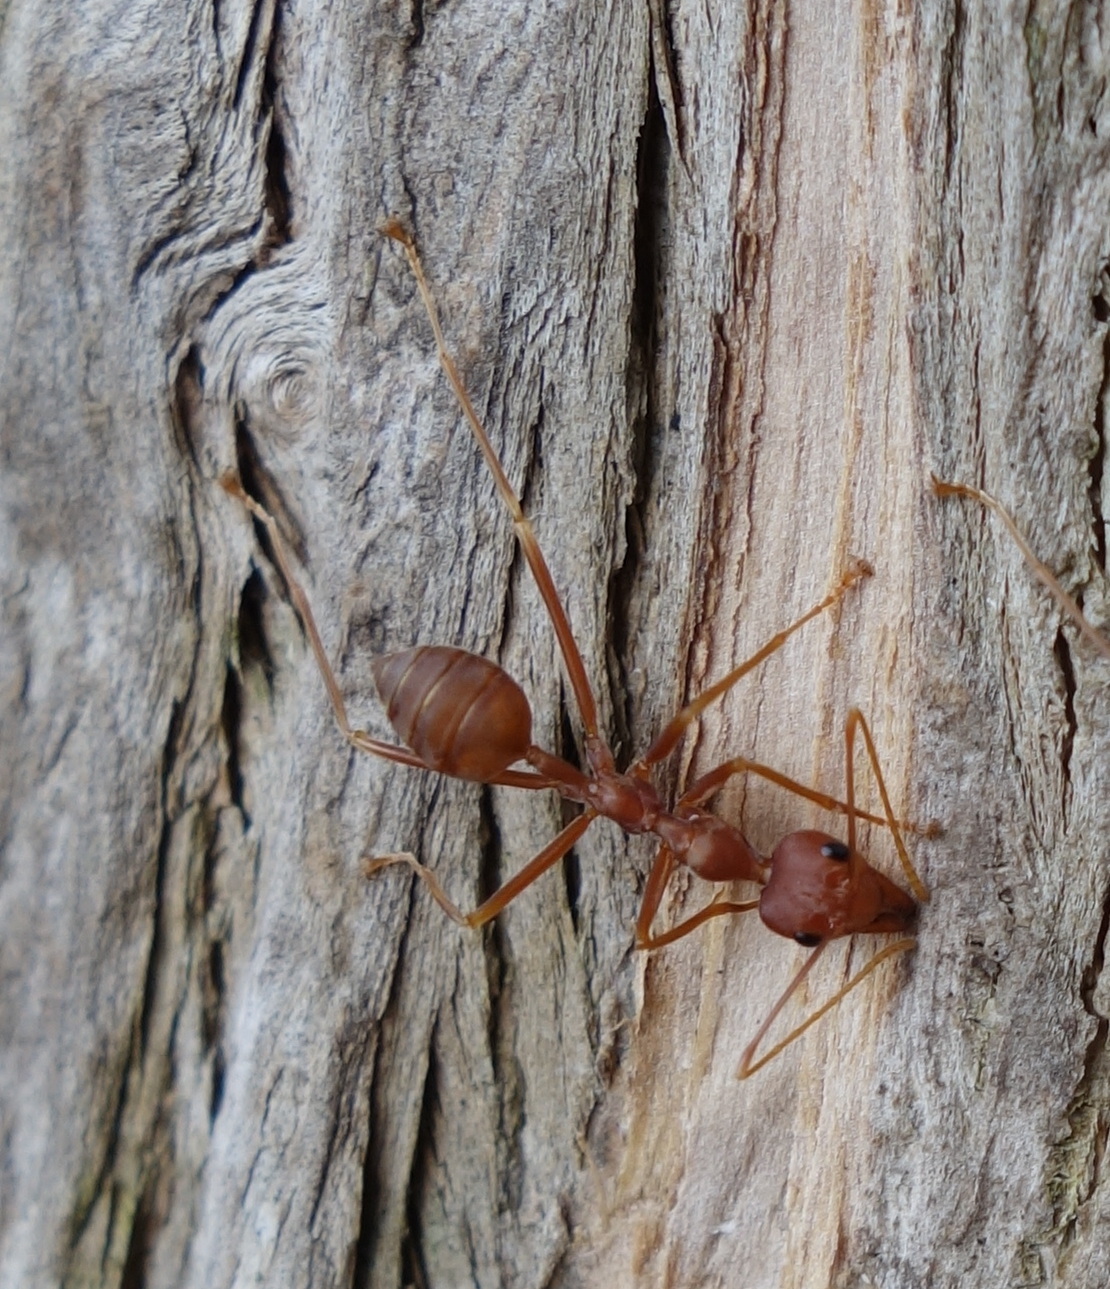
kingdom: Animalia
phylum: Arthropoda
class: Insecta
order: Hymenoptera
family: Formicidae
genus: Oecophylla
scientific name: Oecophylla smaragdina
